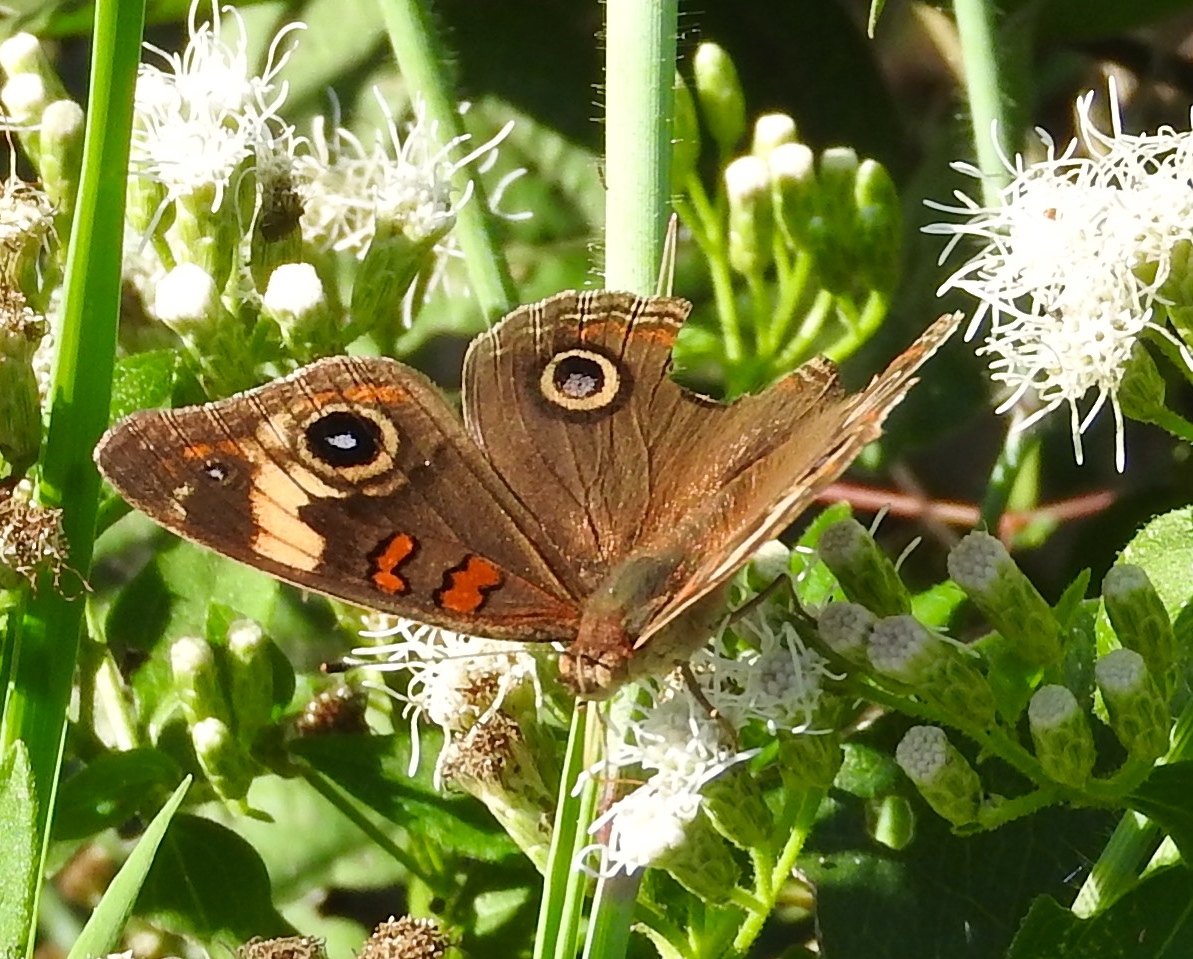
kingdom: Animalia
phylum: Arthropoda
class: Insecta
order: Lepidoptera
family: Nymphalidae
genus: Junonia
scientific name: Junonia
